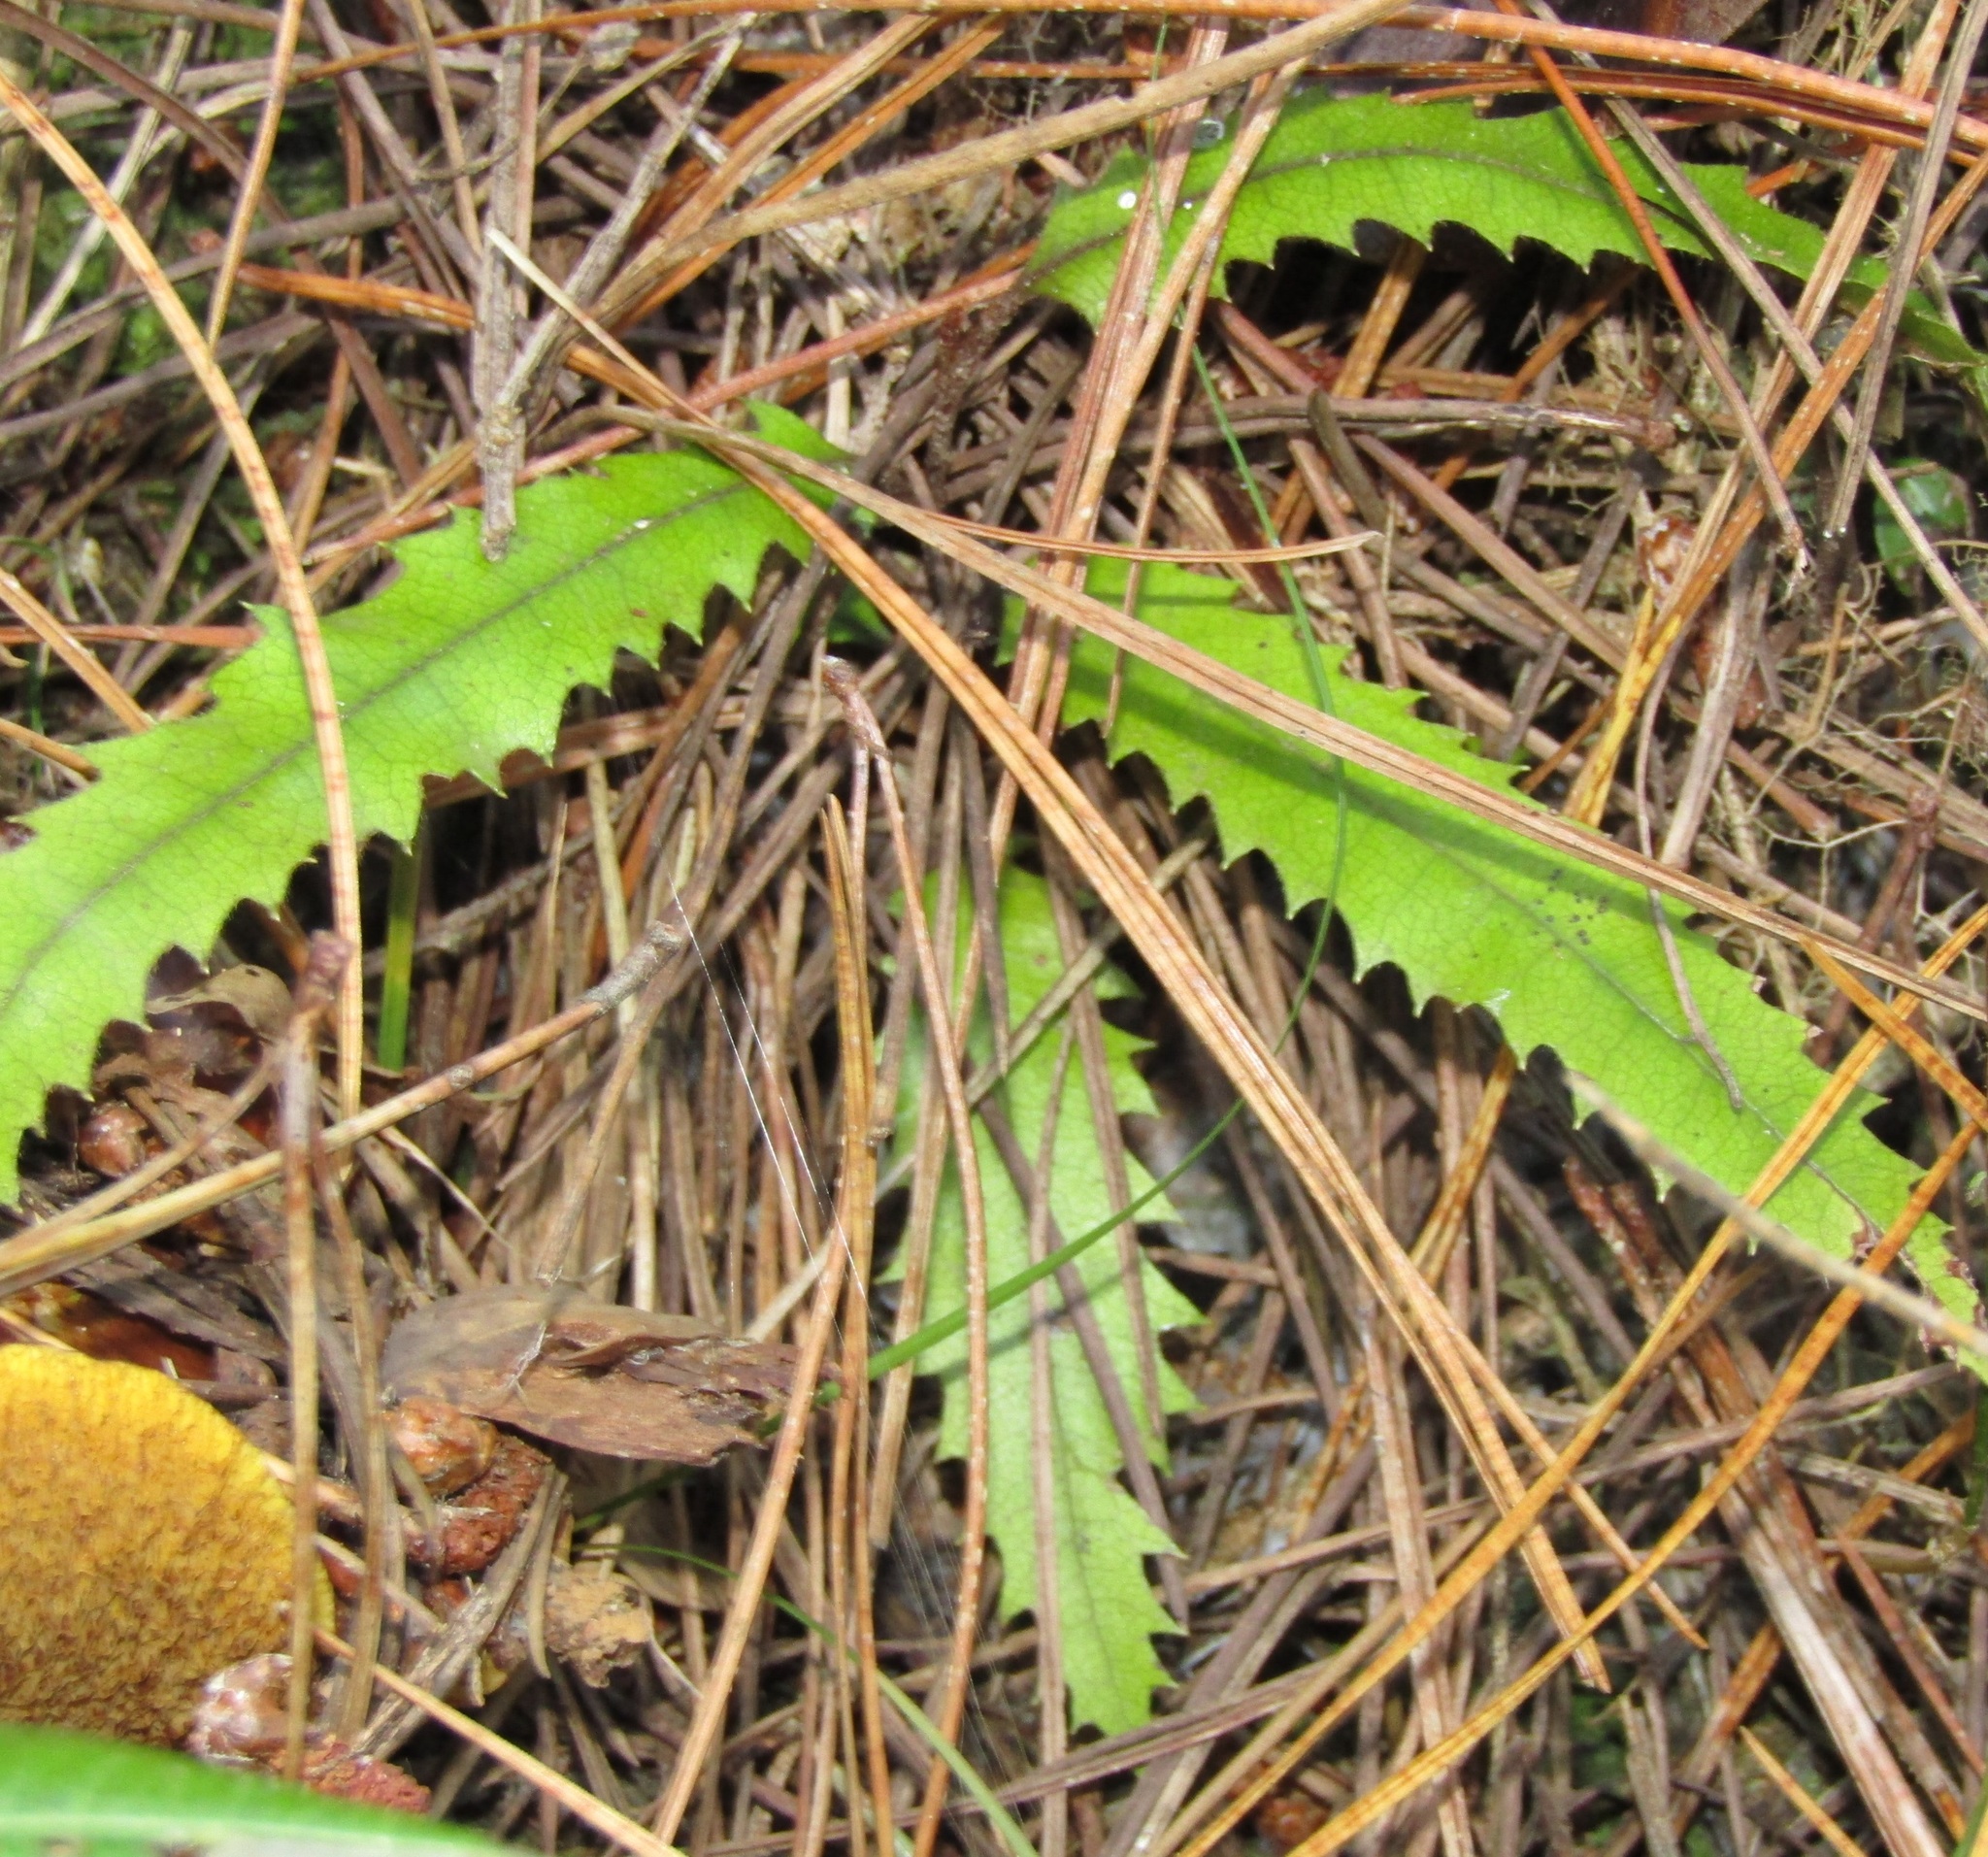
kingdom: Plantae
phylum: Tracheophyta
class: Magnoliopsida
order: Proteales
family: Proteaceae
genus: Knightia
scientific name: Knightia excelsa
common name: New zealand-honeysuckle
